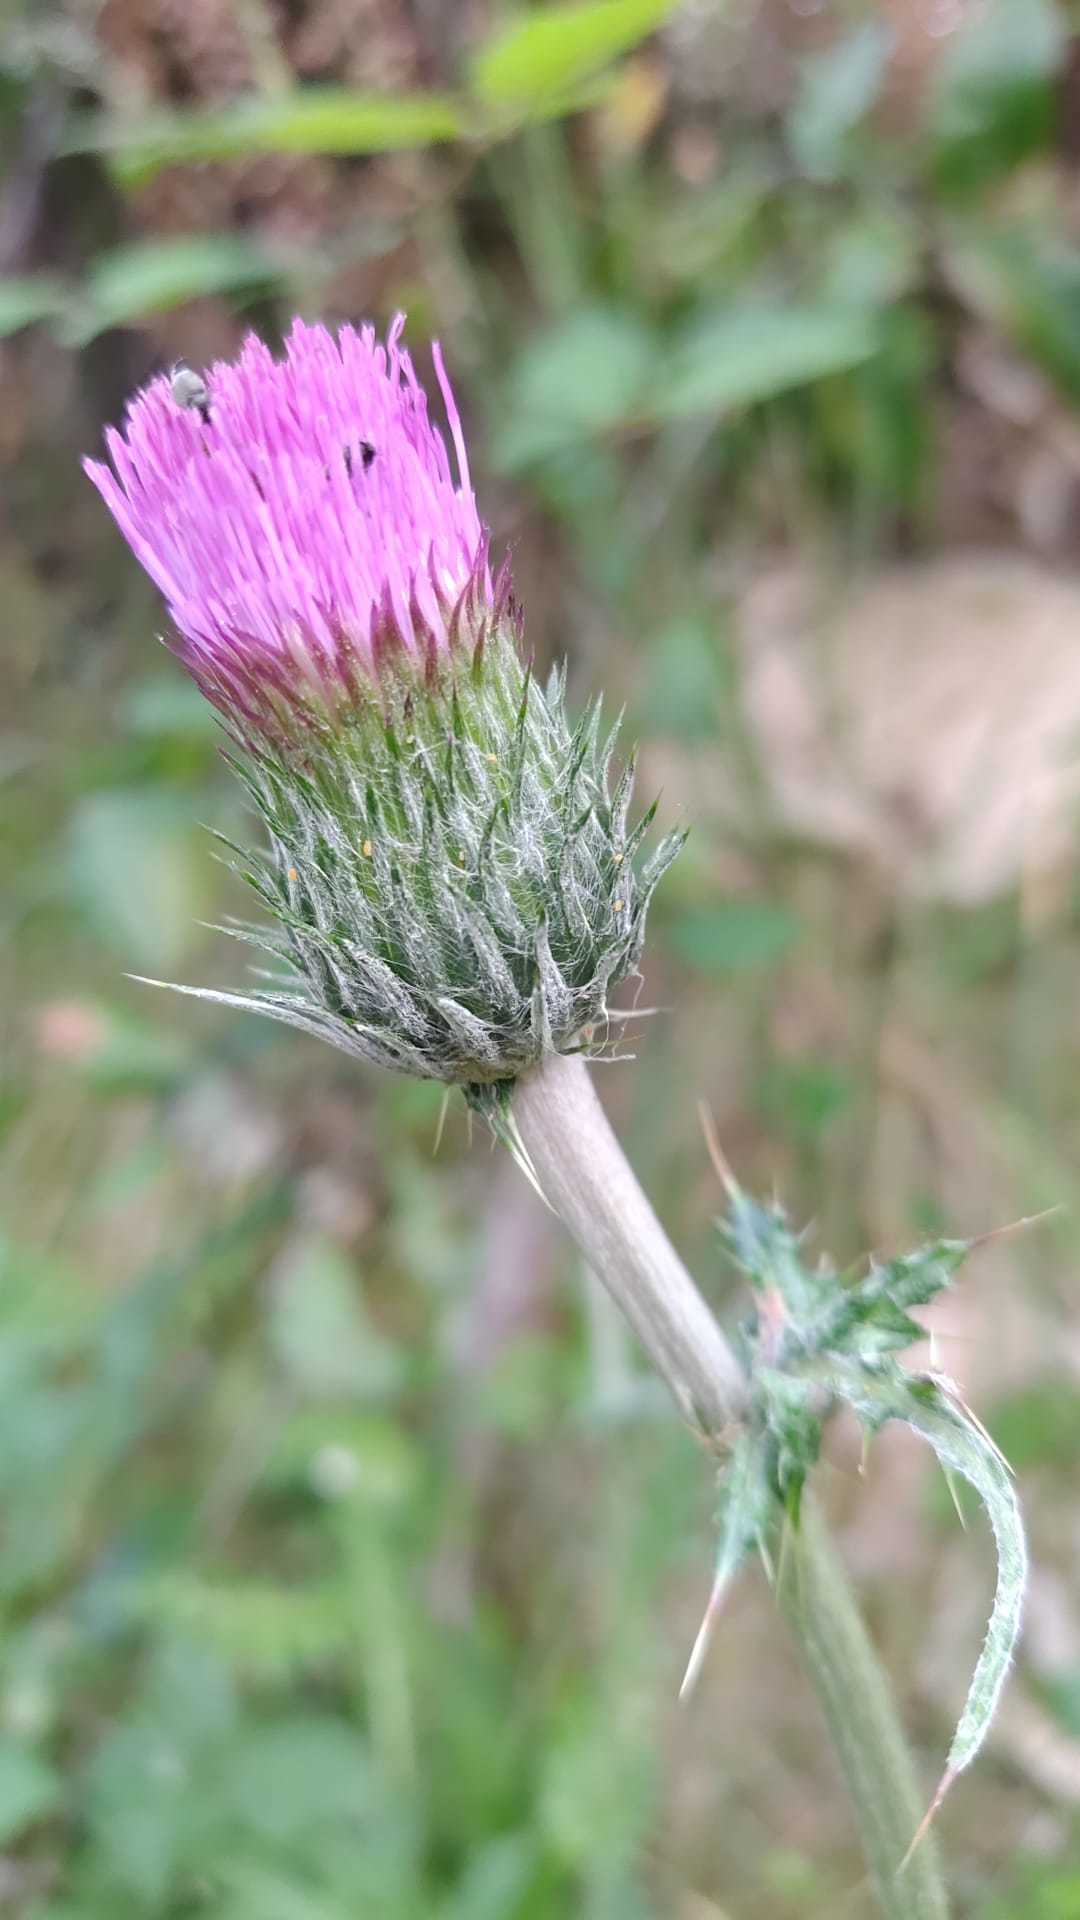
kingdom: Plantae
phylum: Tracheophyta
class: Magnoliopsida
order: Asterales
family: Asteraceae
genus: Cirsium
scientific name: Cirsium filipendulum
